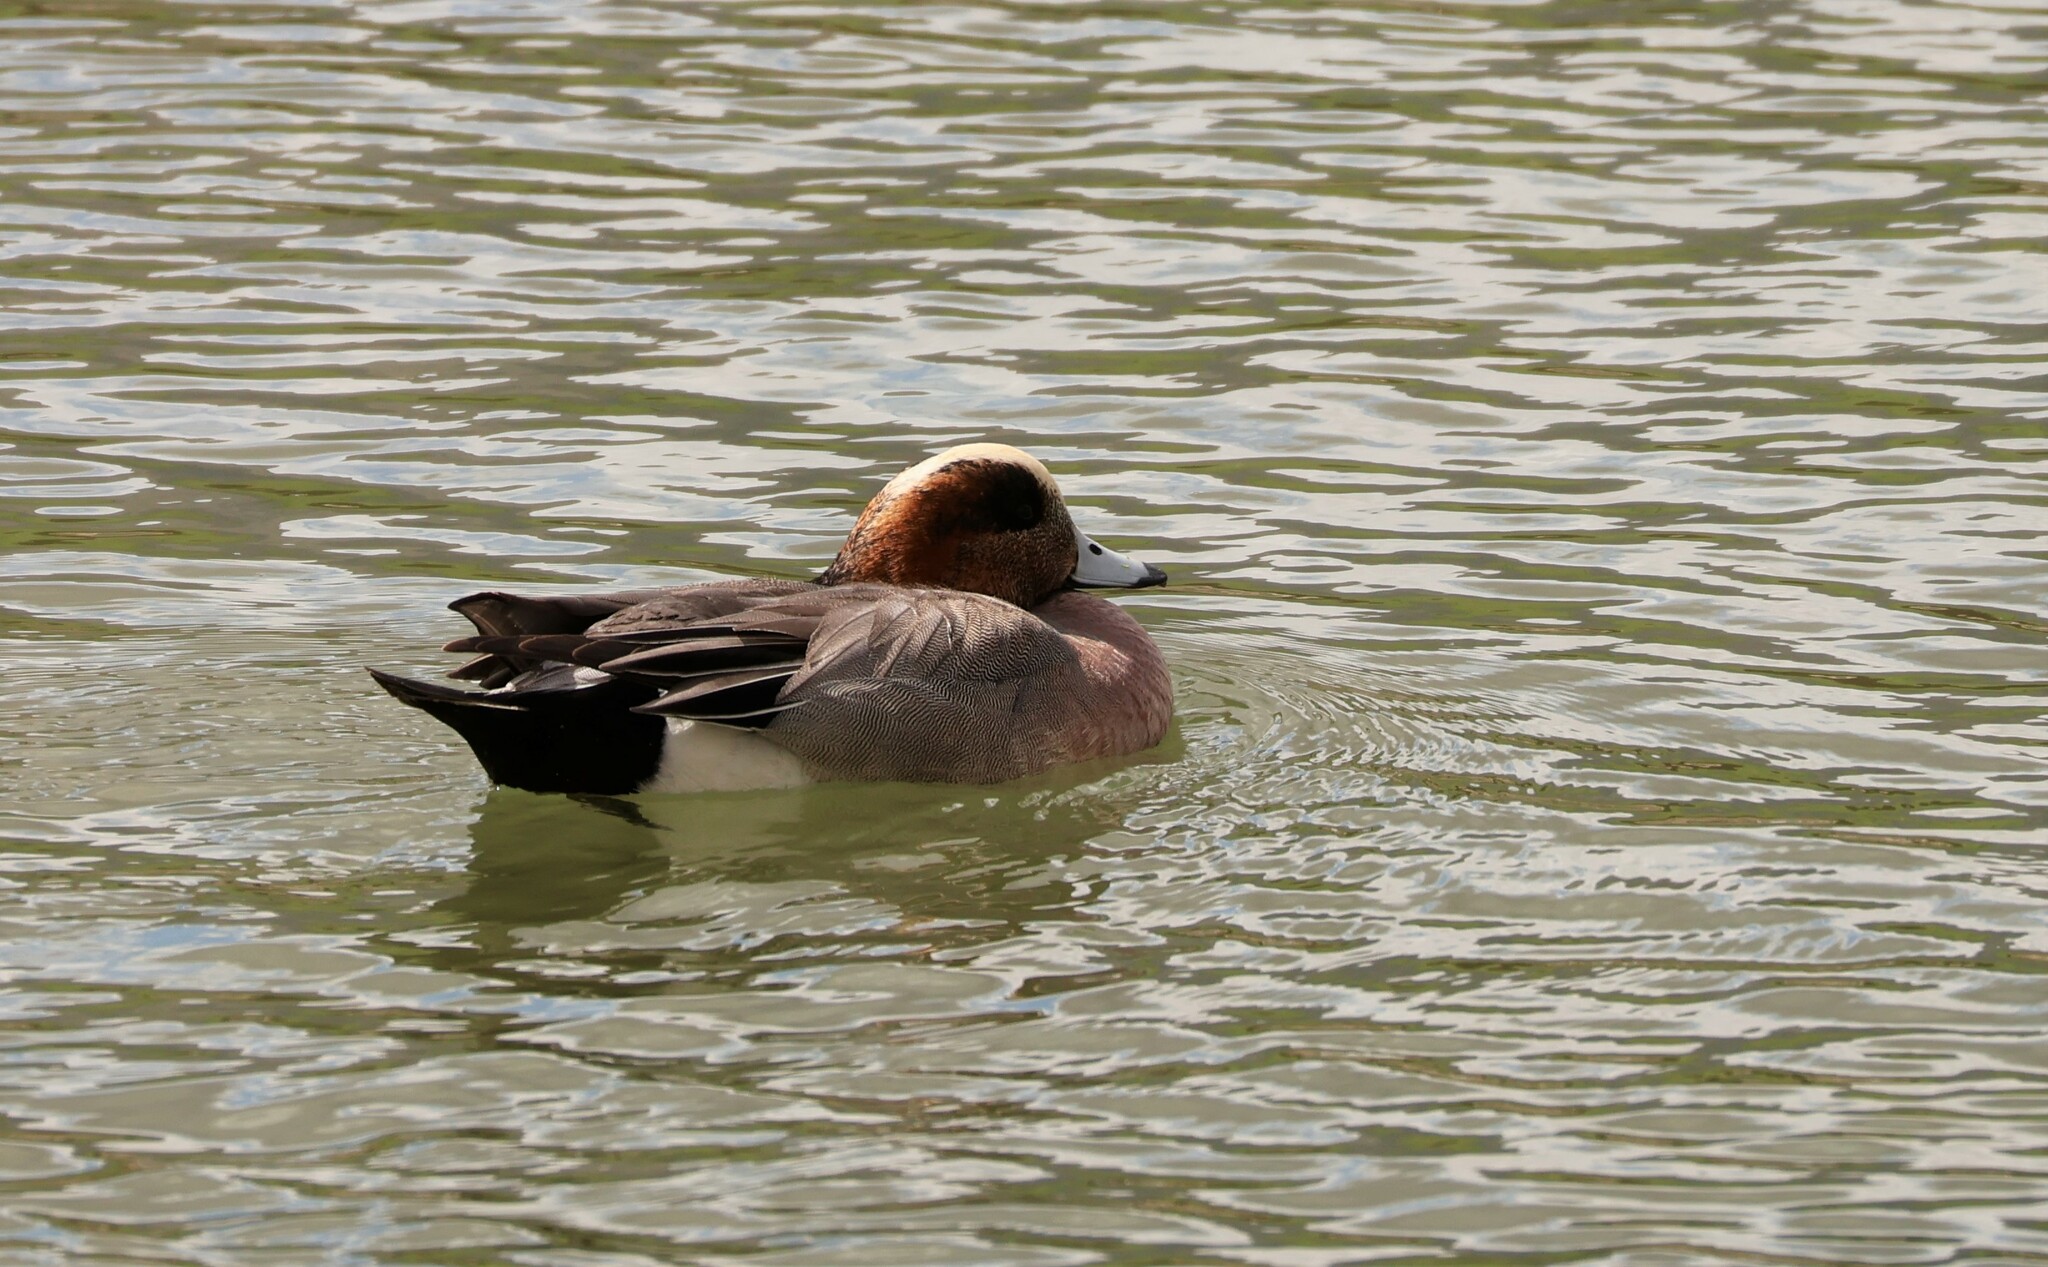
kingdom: Animalia
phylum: Chordata
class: Aves
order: Anseriformes
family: Anatidae
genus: Mareca
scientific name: Mareca
